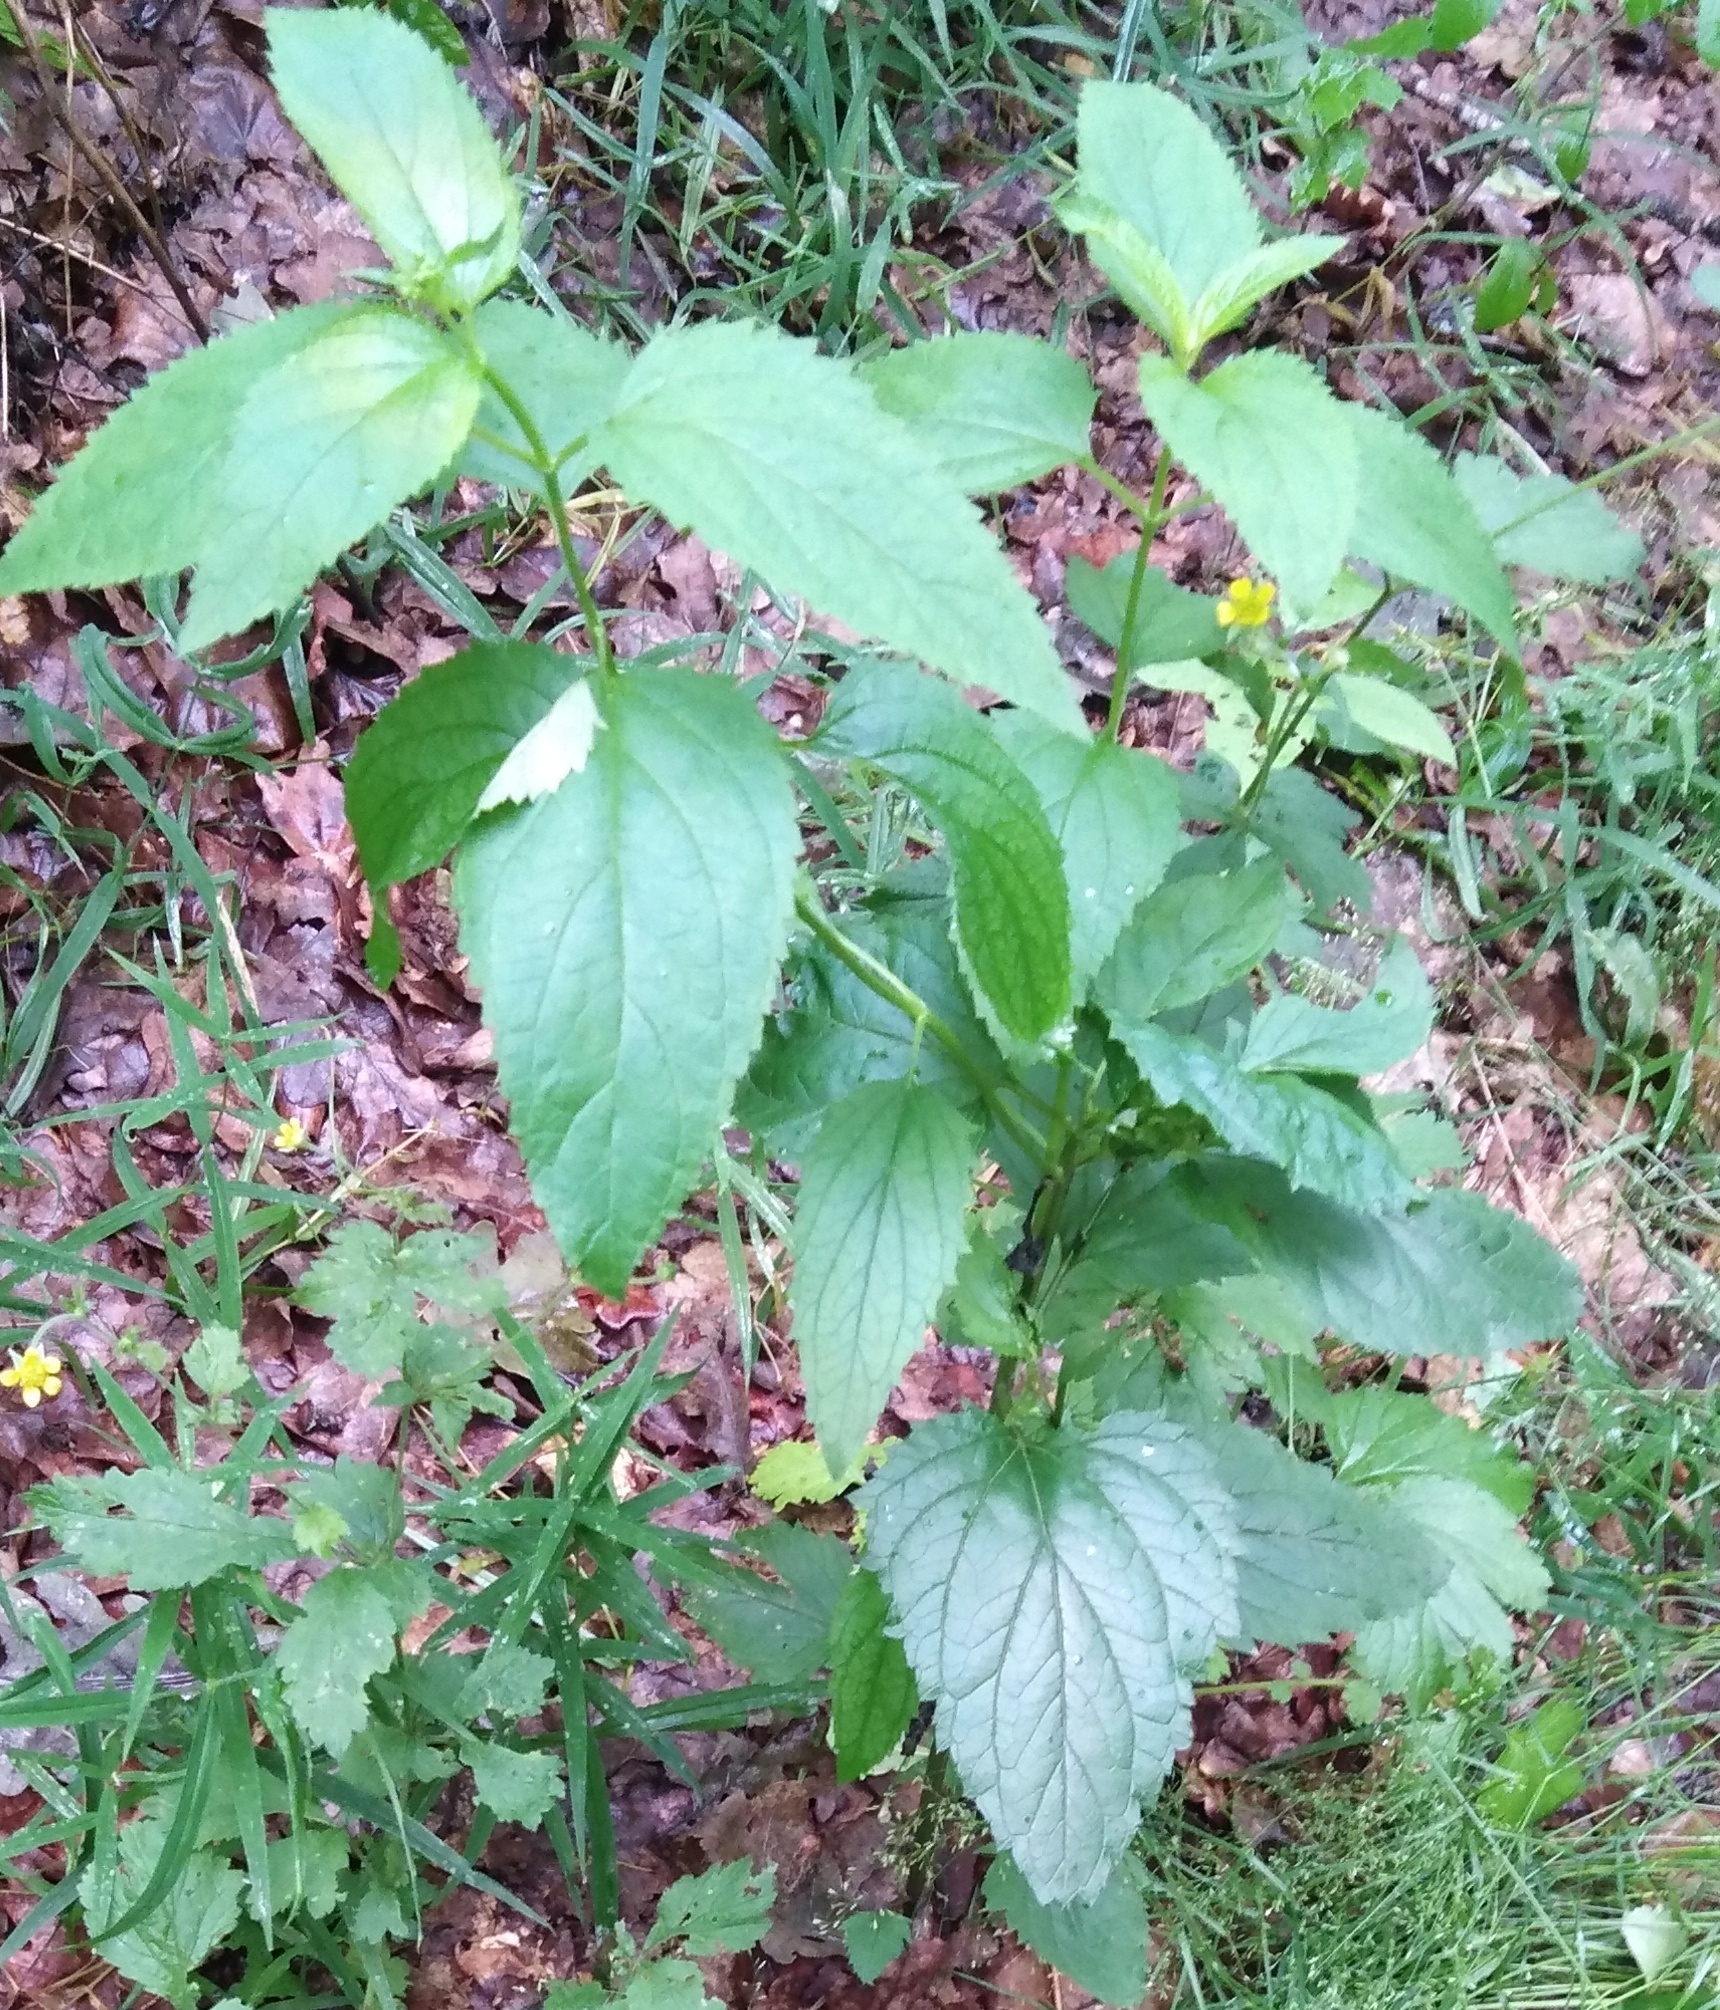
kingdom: Plantae
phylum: Tracheophyta
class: Magnoliopsida
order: Lamiales
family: Scrophulariaceae
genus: Scrophularia
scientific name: Scrophularia nodosa
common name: Common figwort
